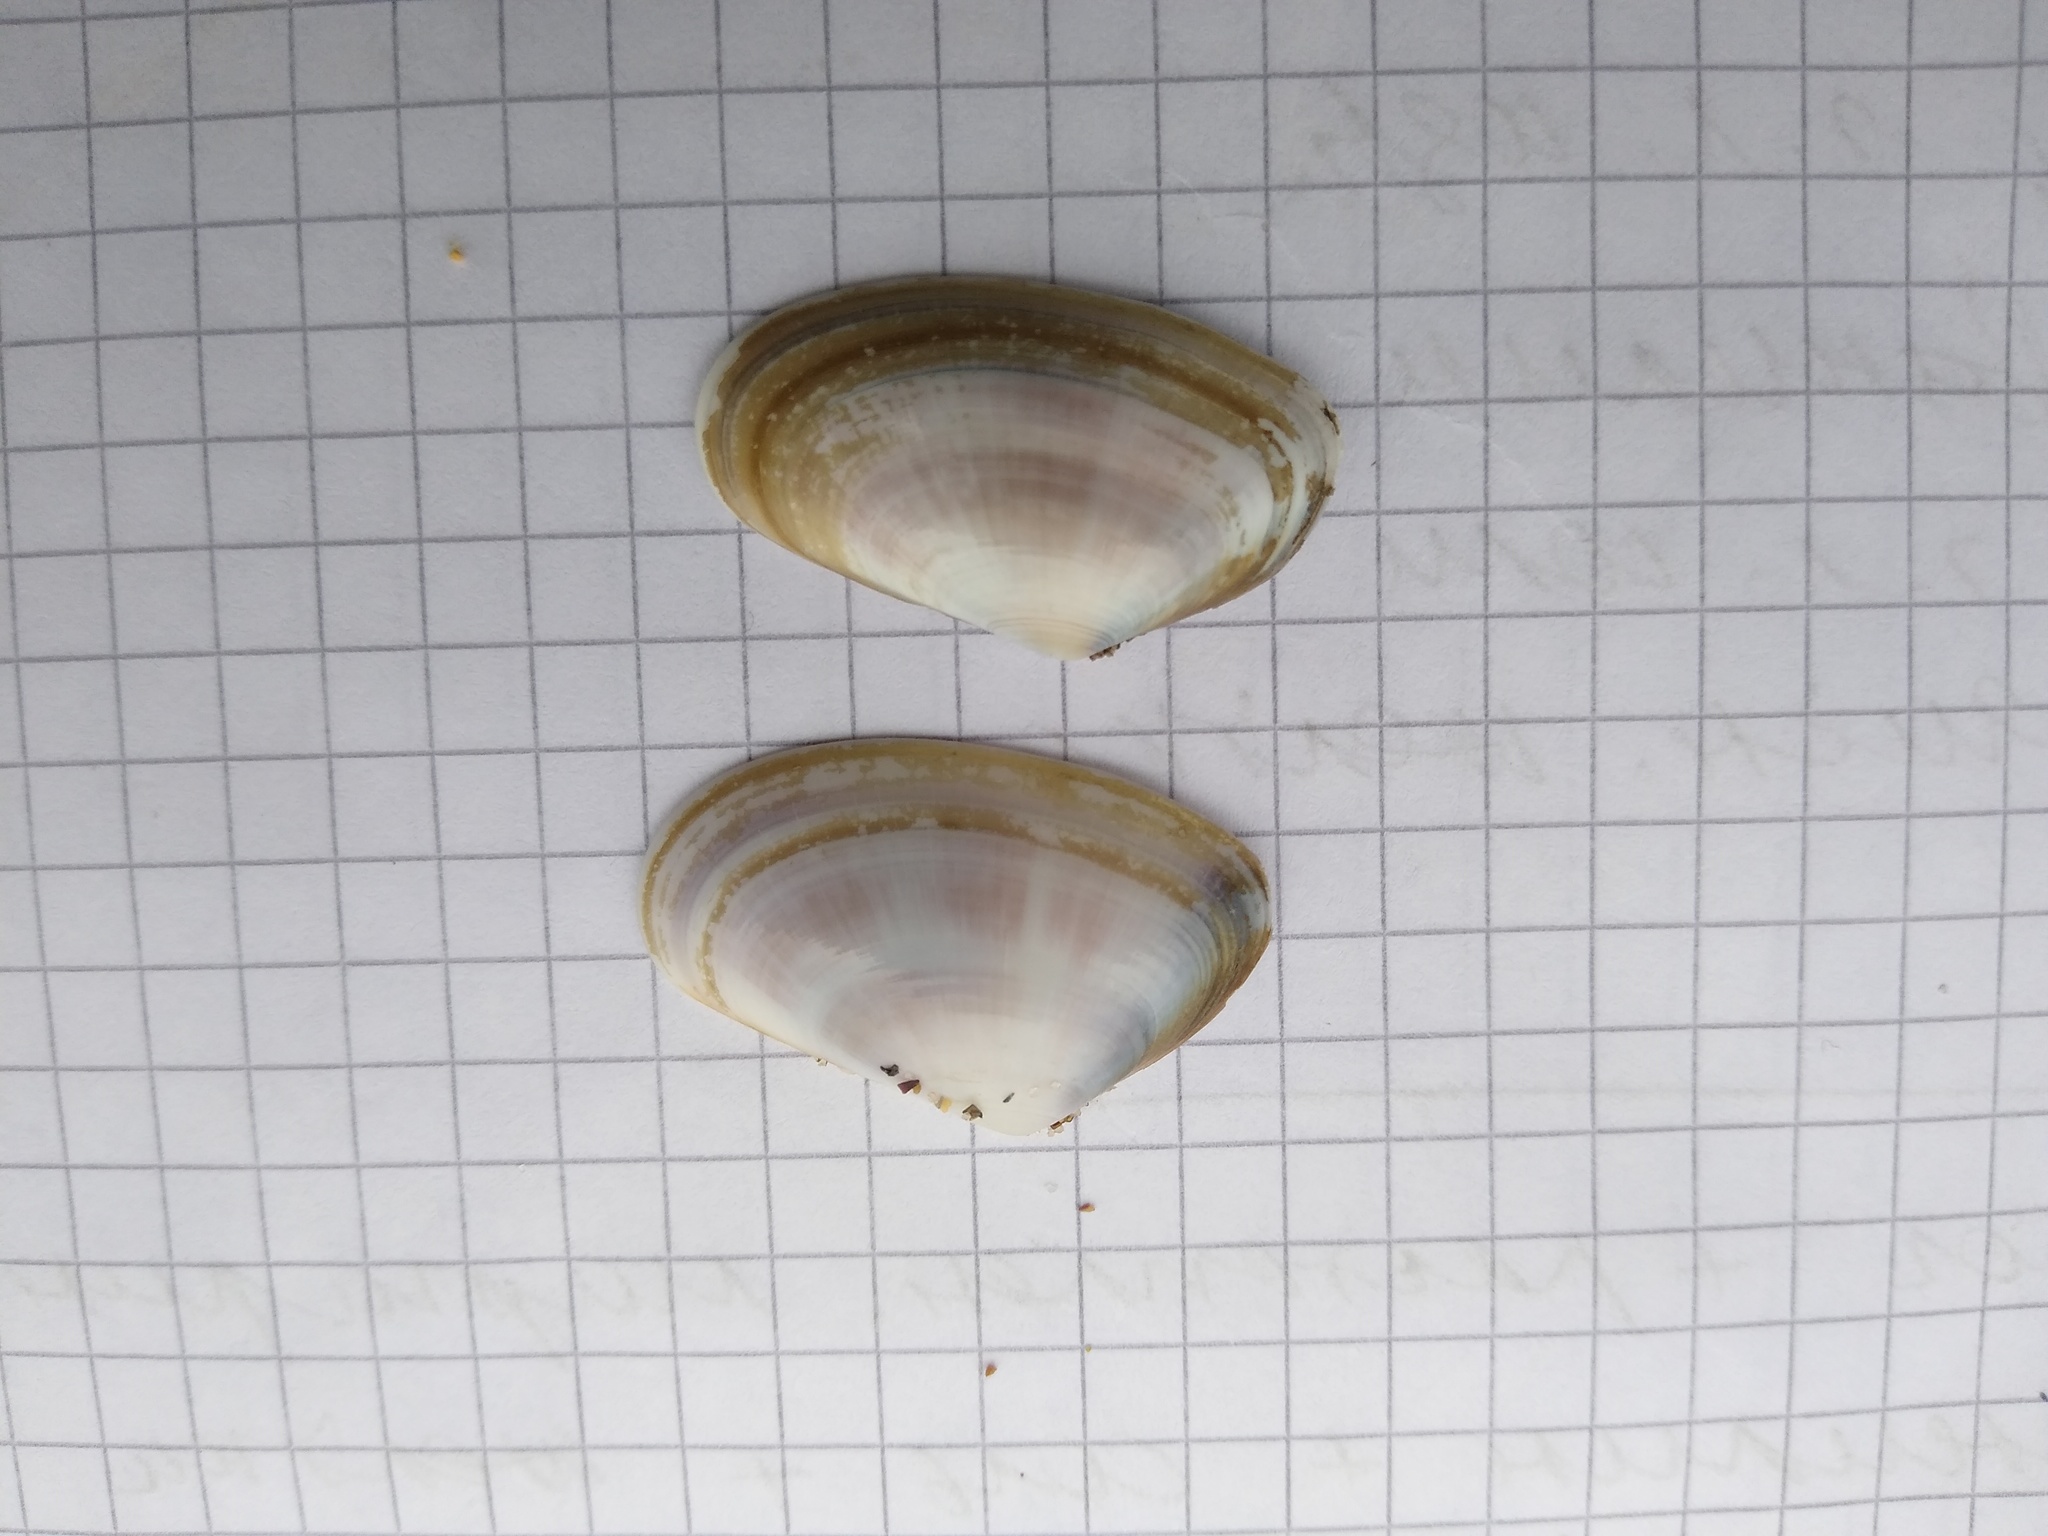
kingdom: Animalia
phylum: Mollusca
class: Bivalvia
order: Cardiida
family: Donacidae
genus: Donax
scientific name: Donax trunculus
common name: Truncate donax
